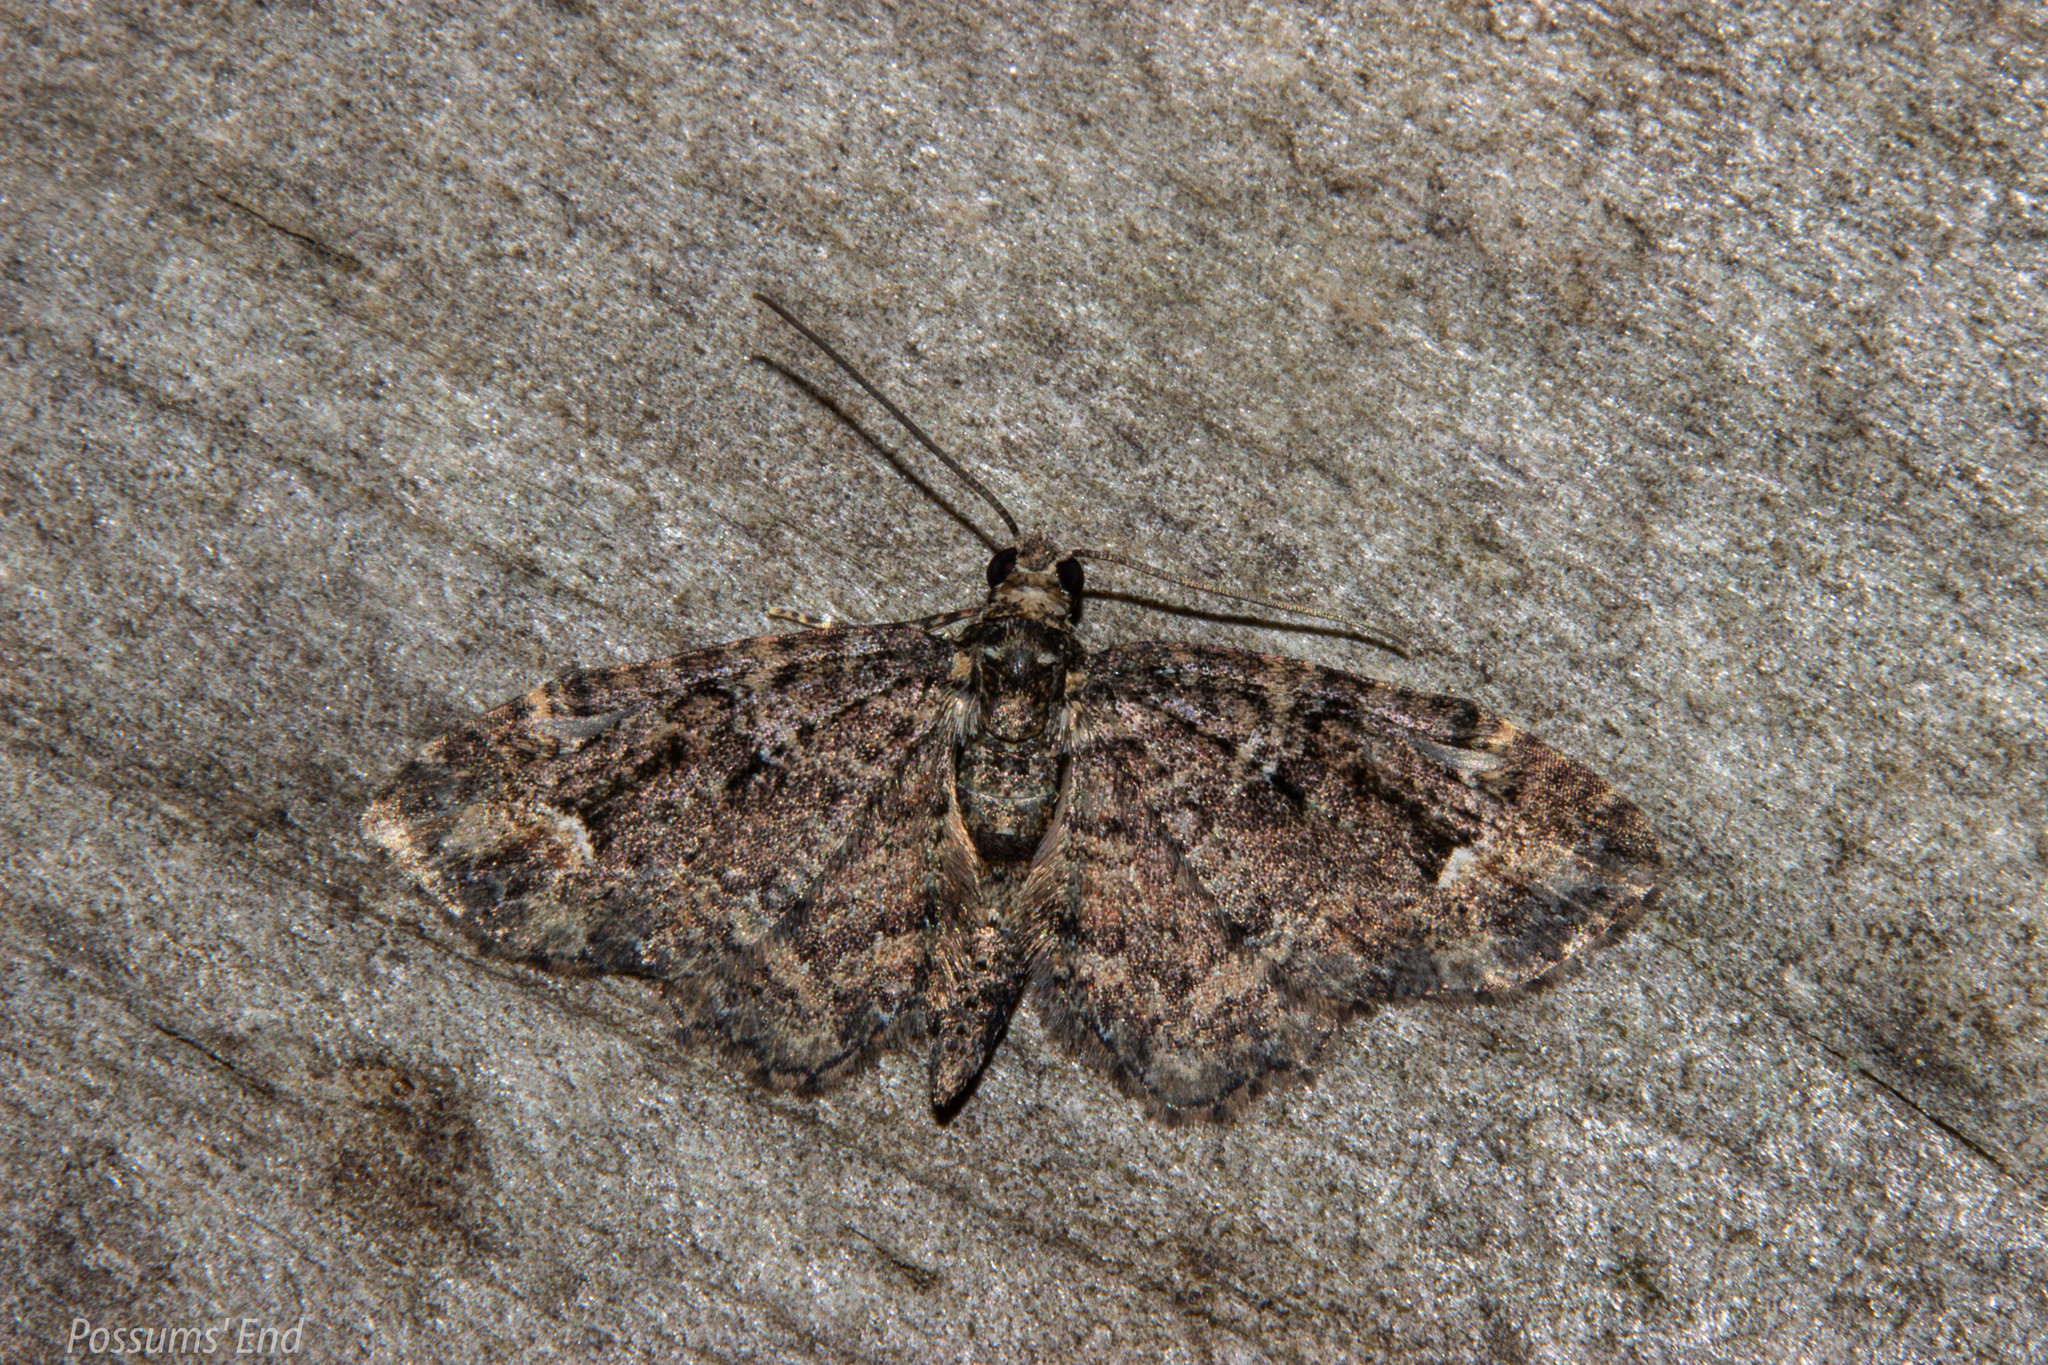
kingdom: Animalia
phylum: Arthropoda
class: Insecta
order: Lepidoptera
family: Geometridae
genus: Pasiphilodes
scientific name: Pasiphilodes testulata
